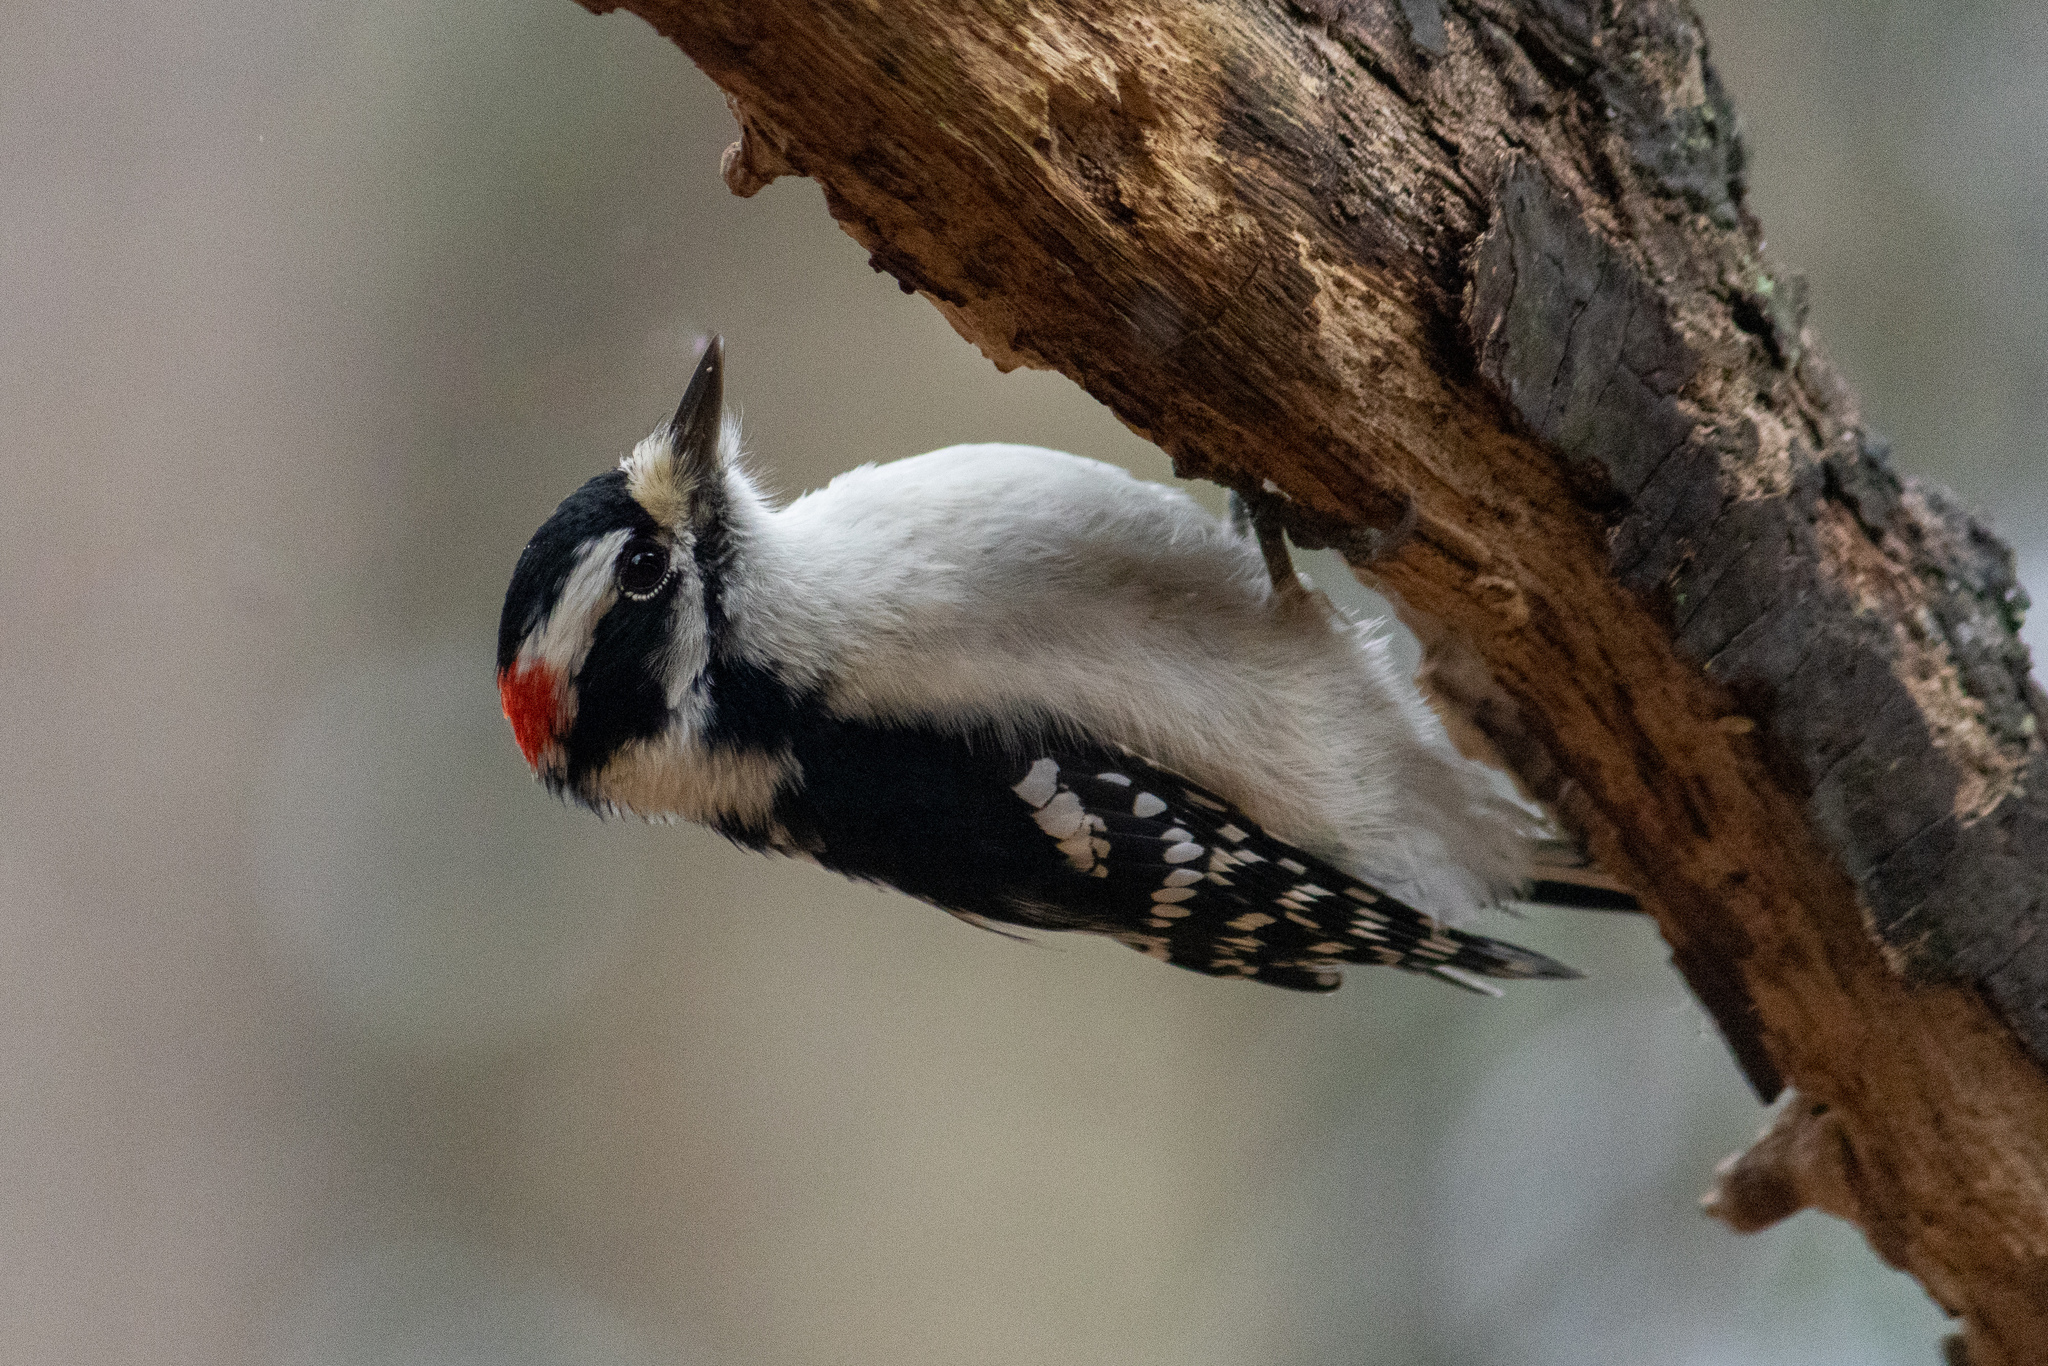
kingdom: Animalia
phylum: Chordata
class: Aves
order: Piciformes
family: Picidae
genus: Dryobates
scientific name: Dryobates pubescens
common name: Downy woodpecker
